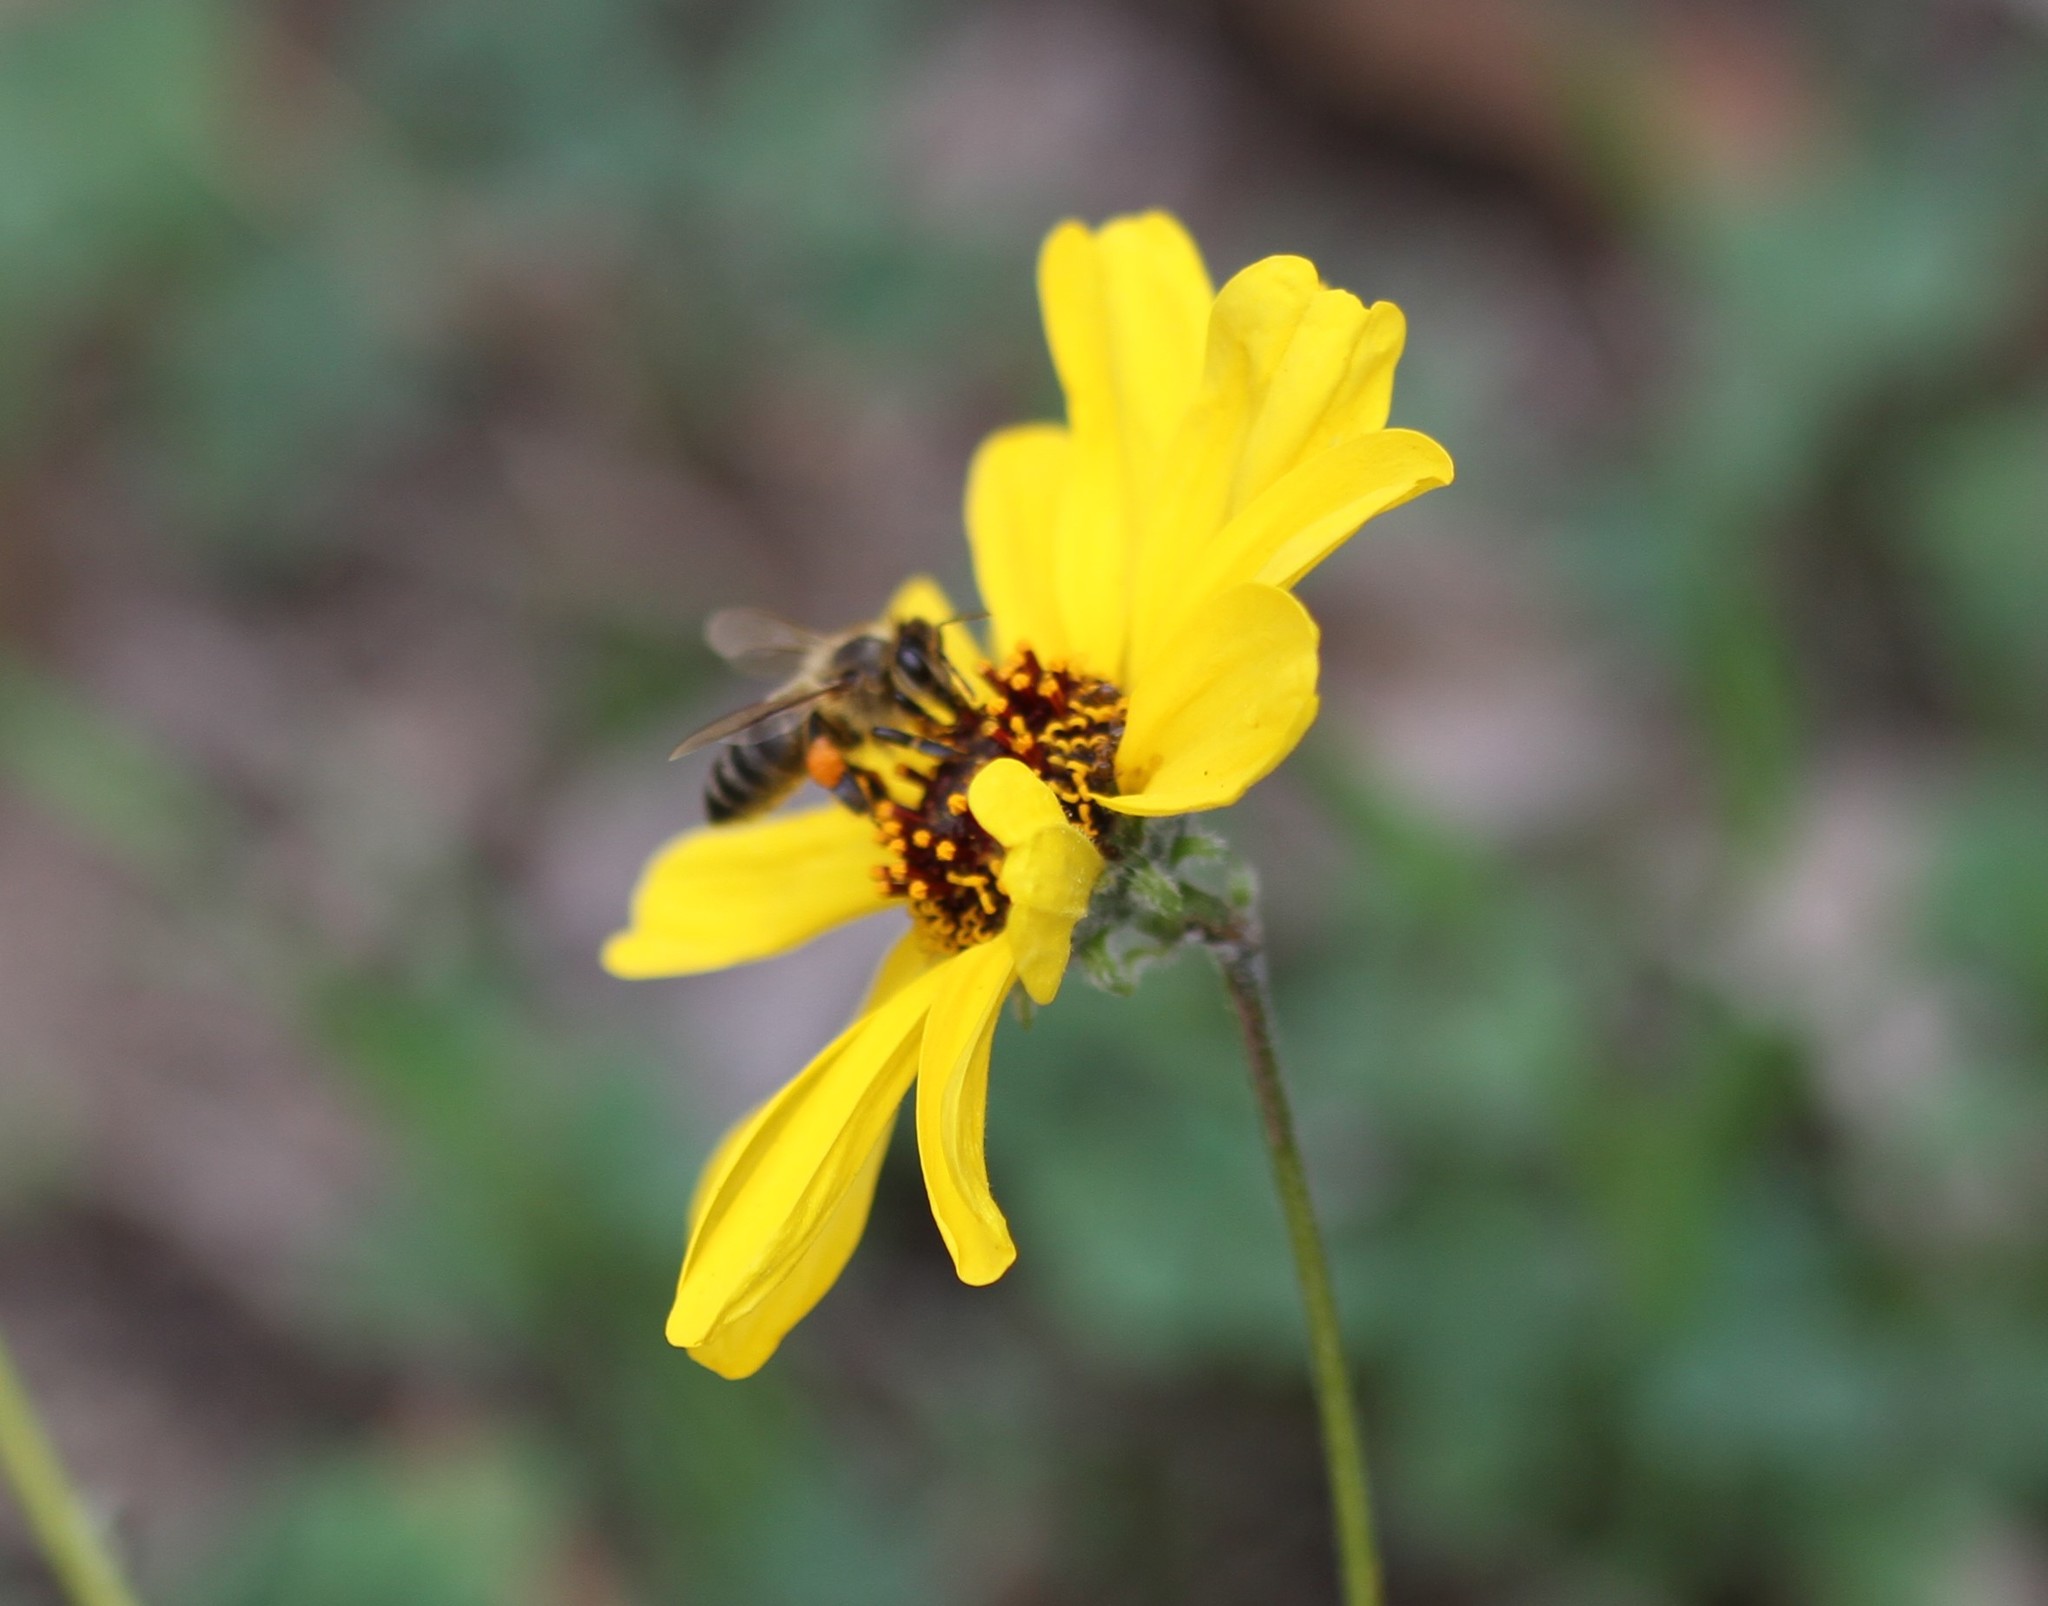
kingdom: Animalia
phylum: Arthropoda
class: Insecta
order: Hymenoptera
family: Apidae
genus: Apis
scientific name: Apis mellifera
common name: Honey bee
